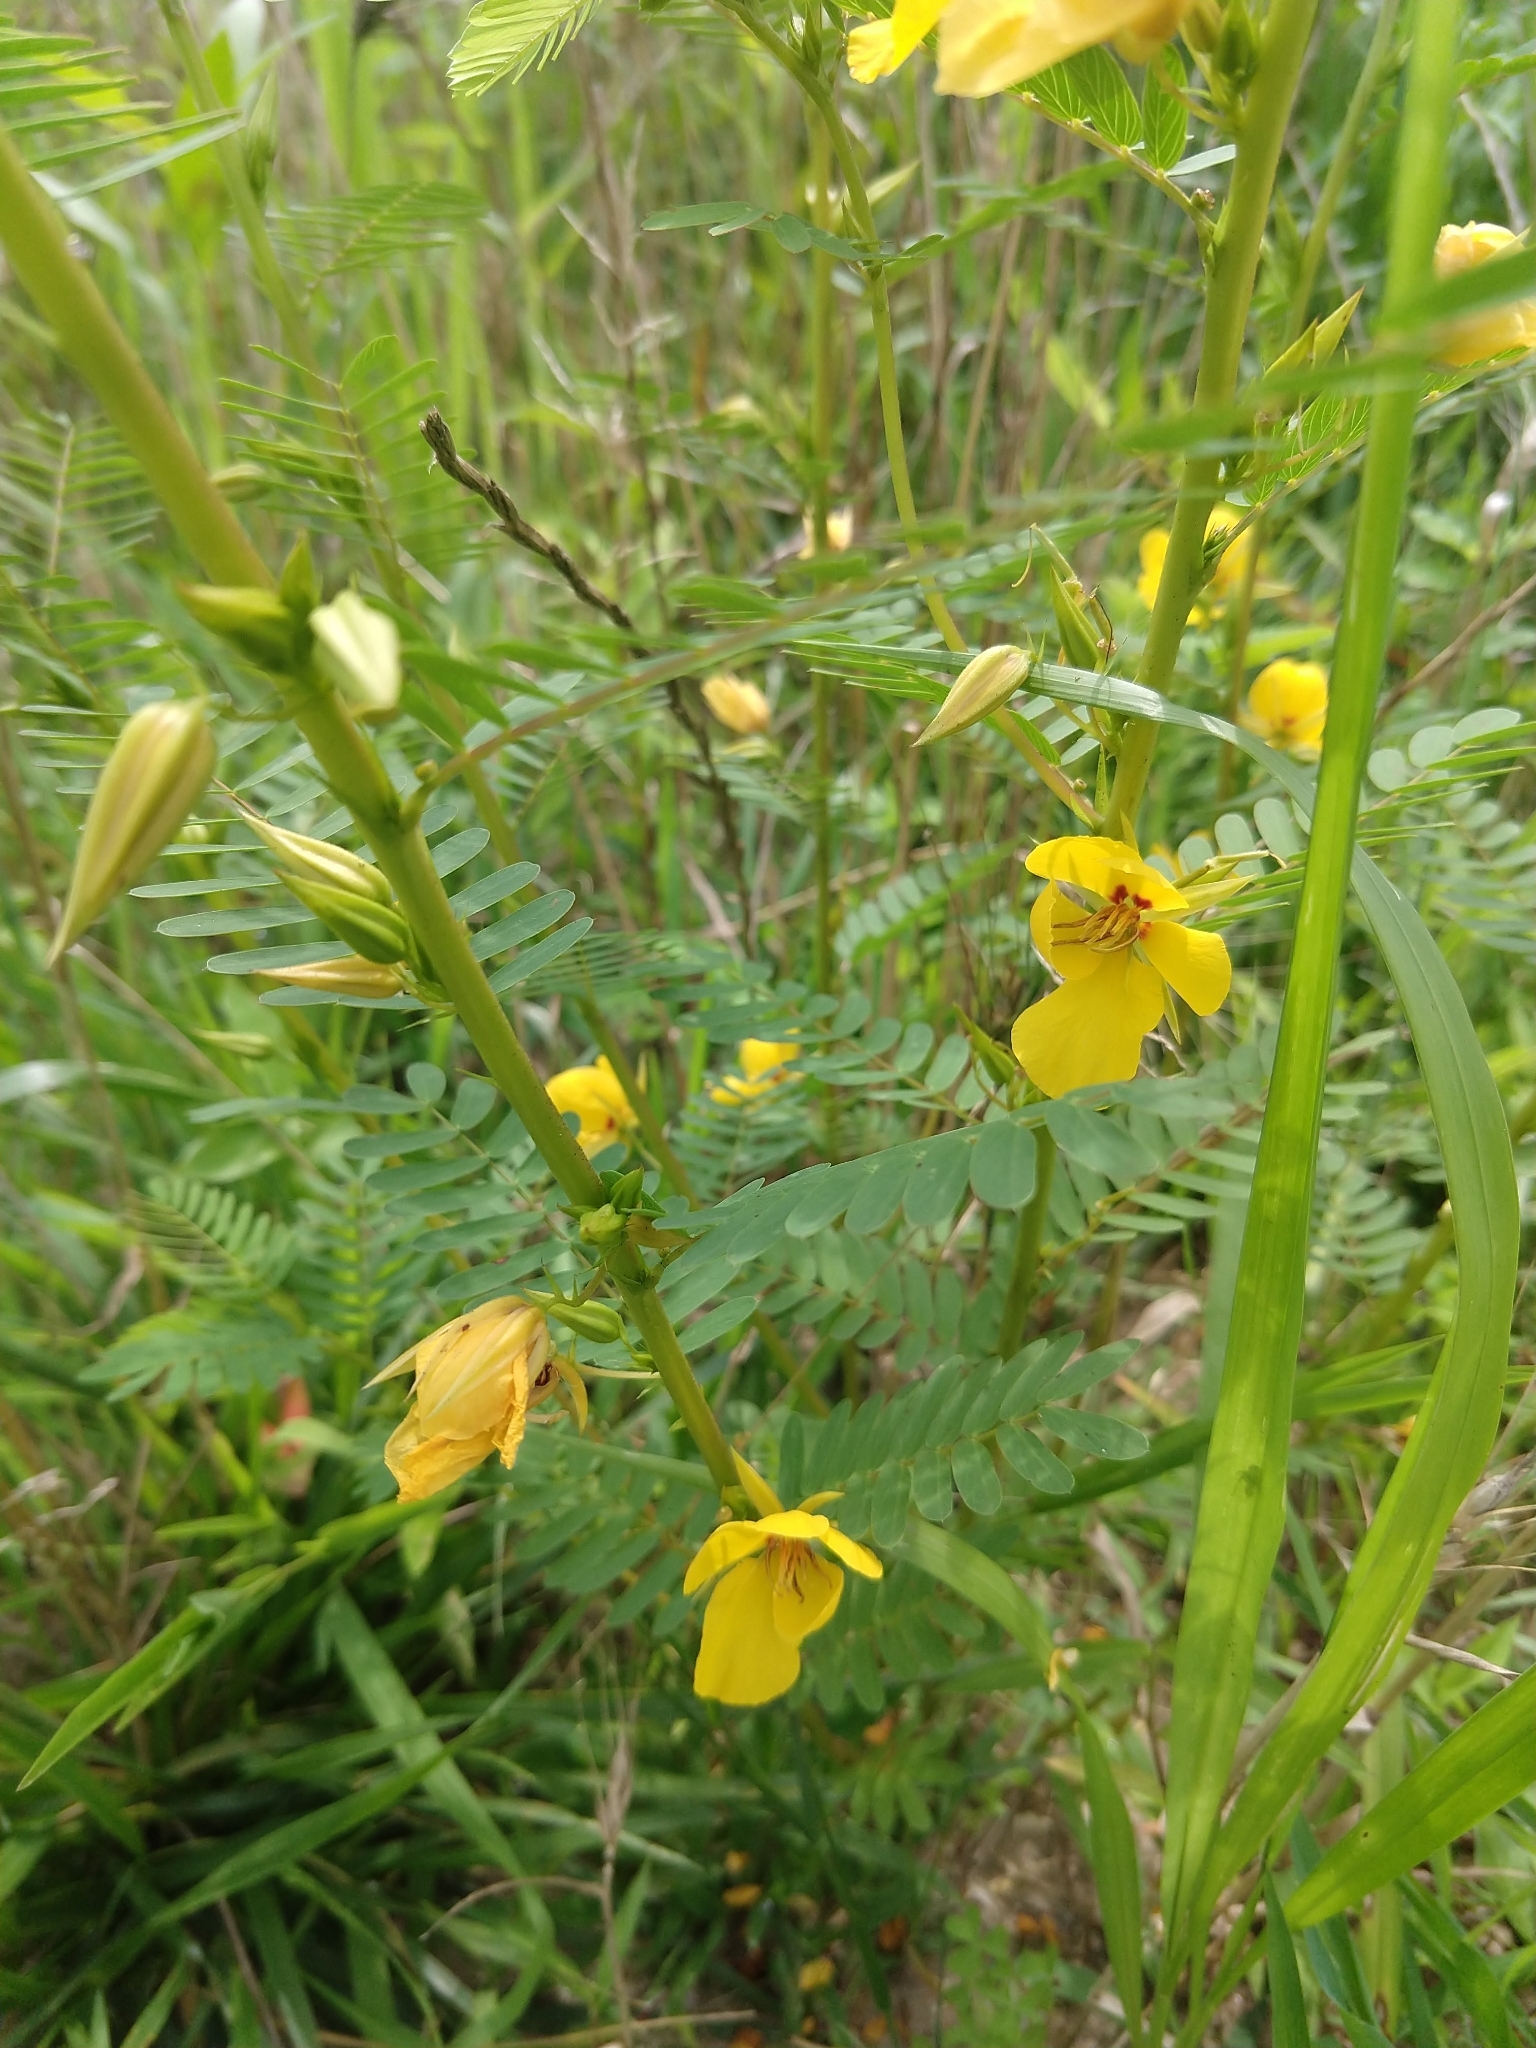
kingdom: Plantae
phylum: Tracheophyta
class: Magnoliopsida
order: Fabales
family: Fabaceae
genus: Chamaecrista
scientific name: Chamaecrista fasciculata
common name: Golden cassia
